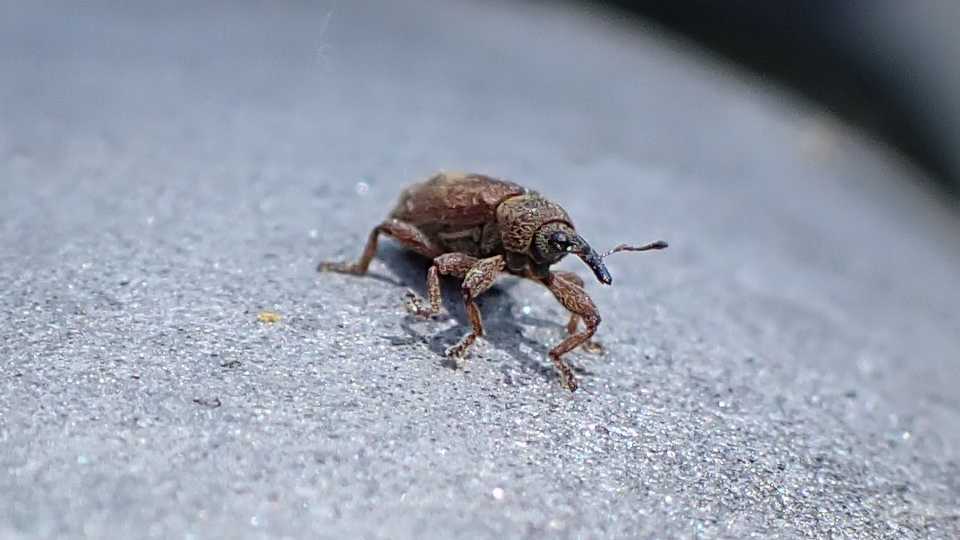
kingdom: Animalia
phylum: Arthropoda
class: Insecta
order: Coleoptera
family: Curculionidae
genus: Bradybatus
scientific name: Bradybatus tomentosus
